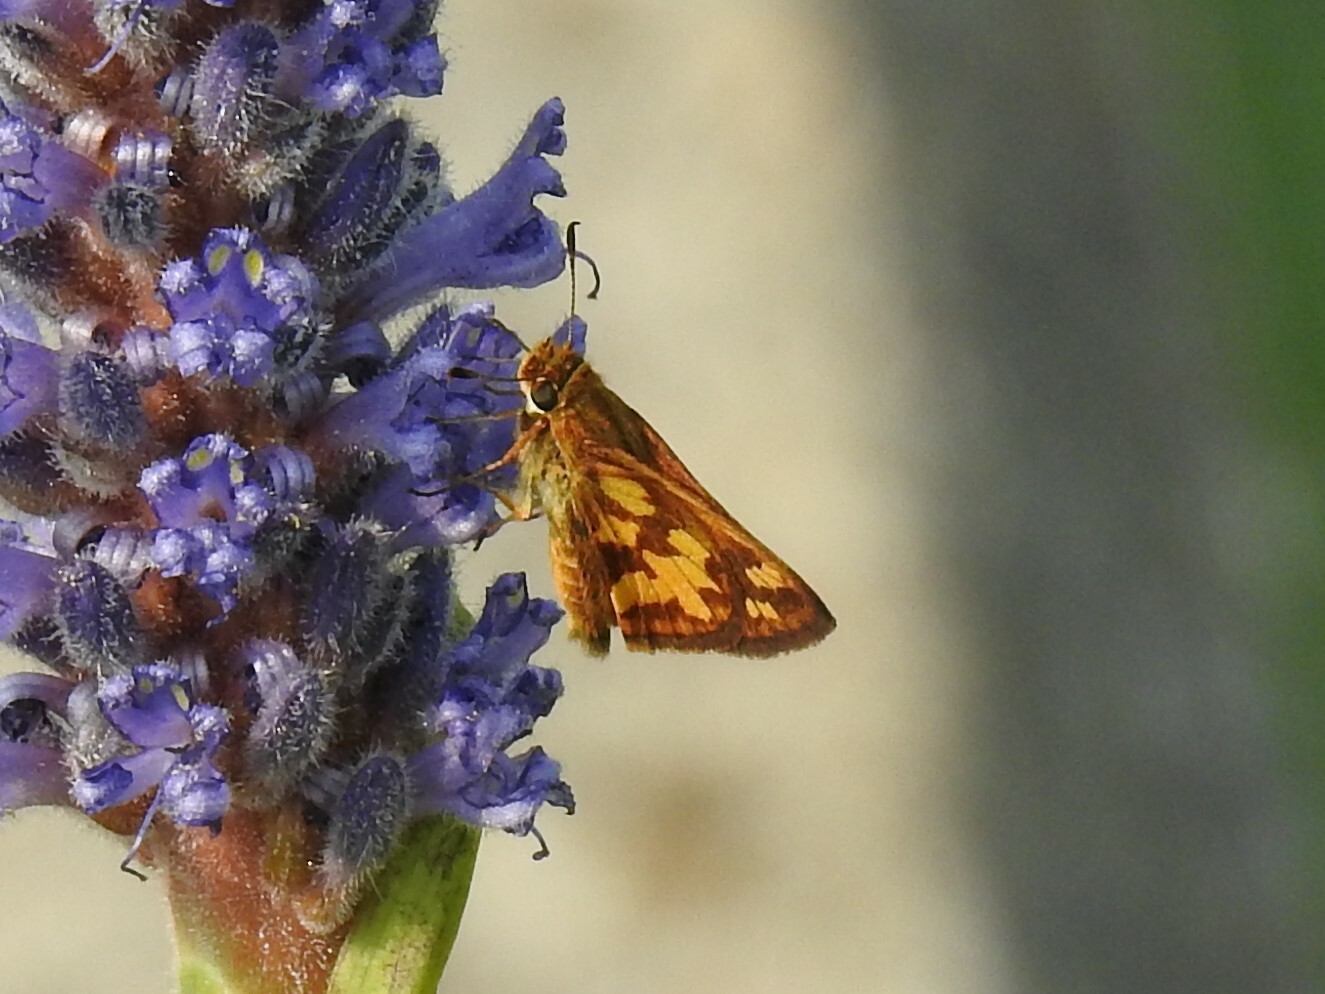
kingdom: Animalia
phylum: Arthropoda
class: Insecta
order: Lepidoptera
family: Hesperiidae
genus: Polites
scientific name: Polites coras
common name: Peck's skipper
